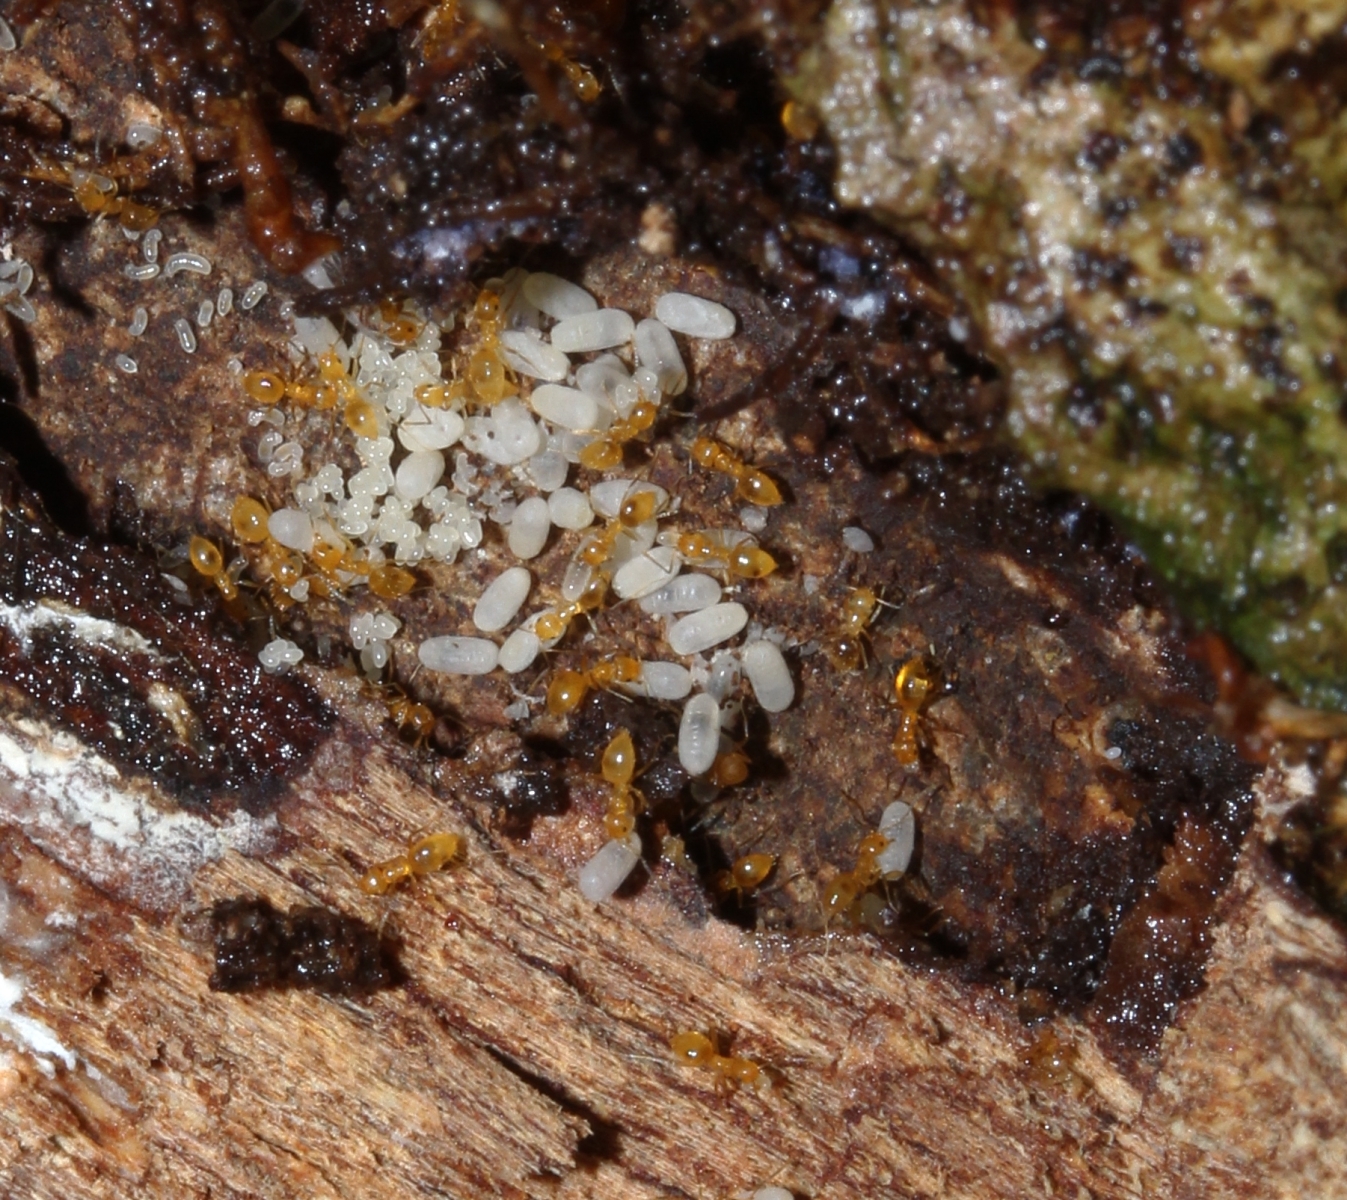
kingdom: Animalia
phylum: Arthropoda
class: Insecta
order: Hymenoptera
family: Formicidae
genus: Brachymyrmex
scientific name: Brachymyrmex
